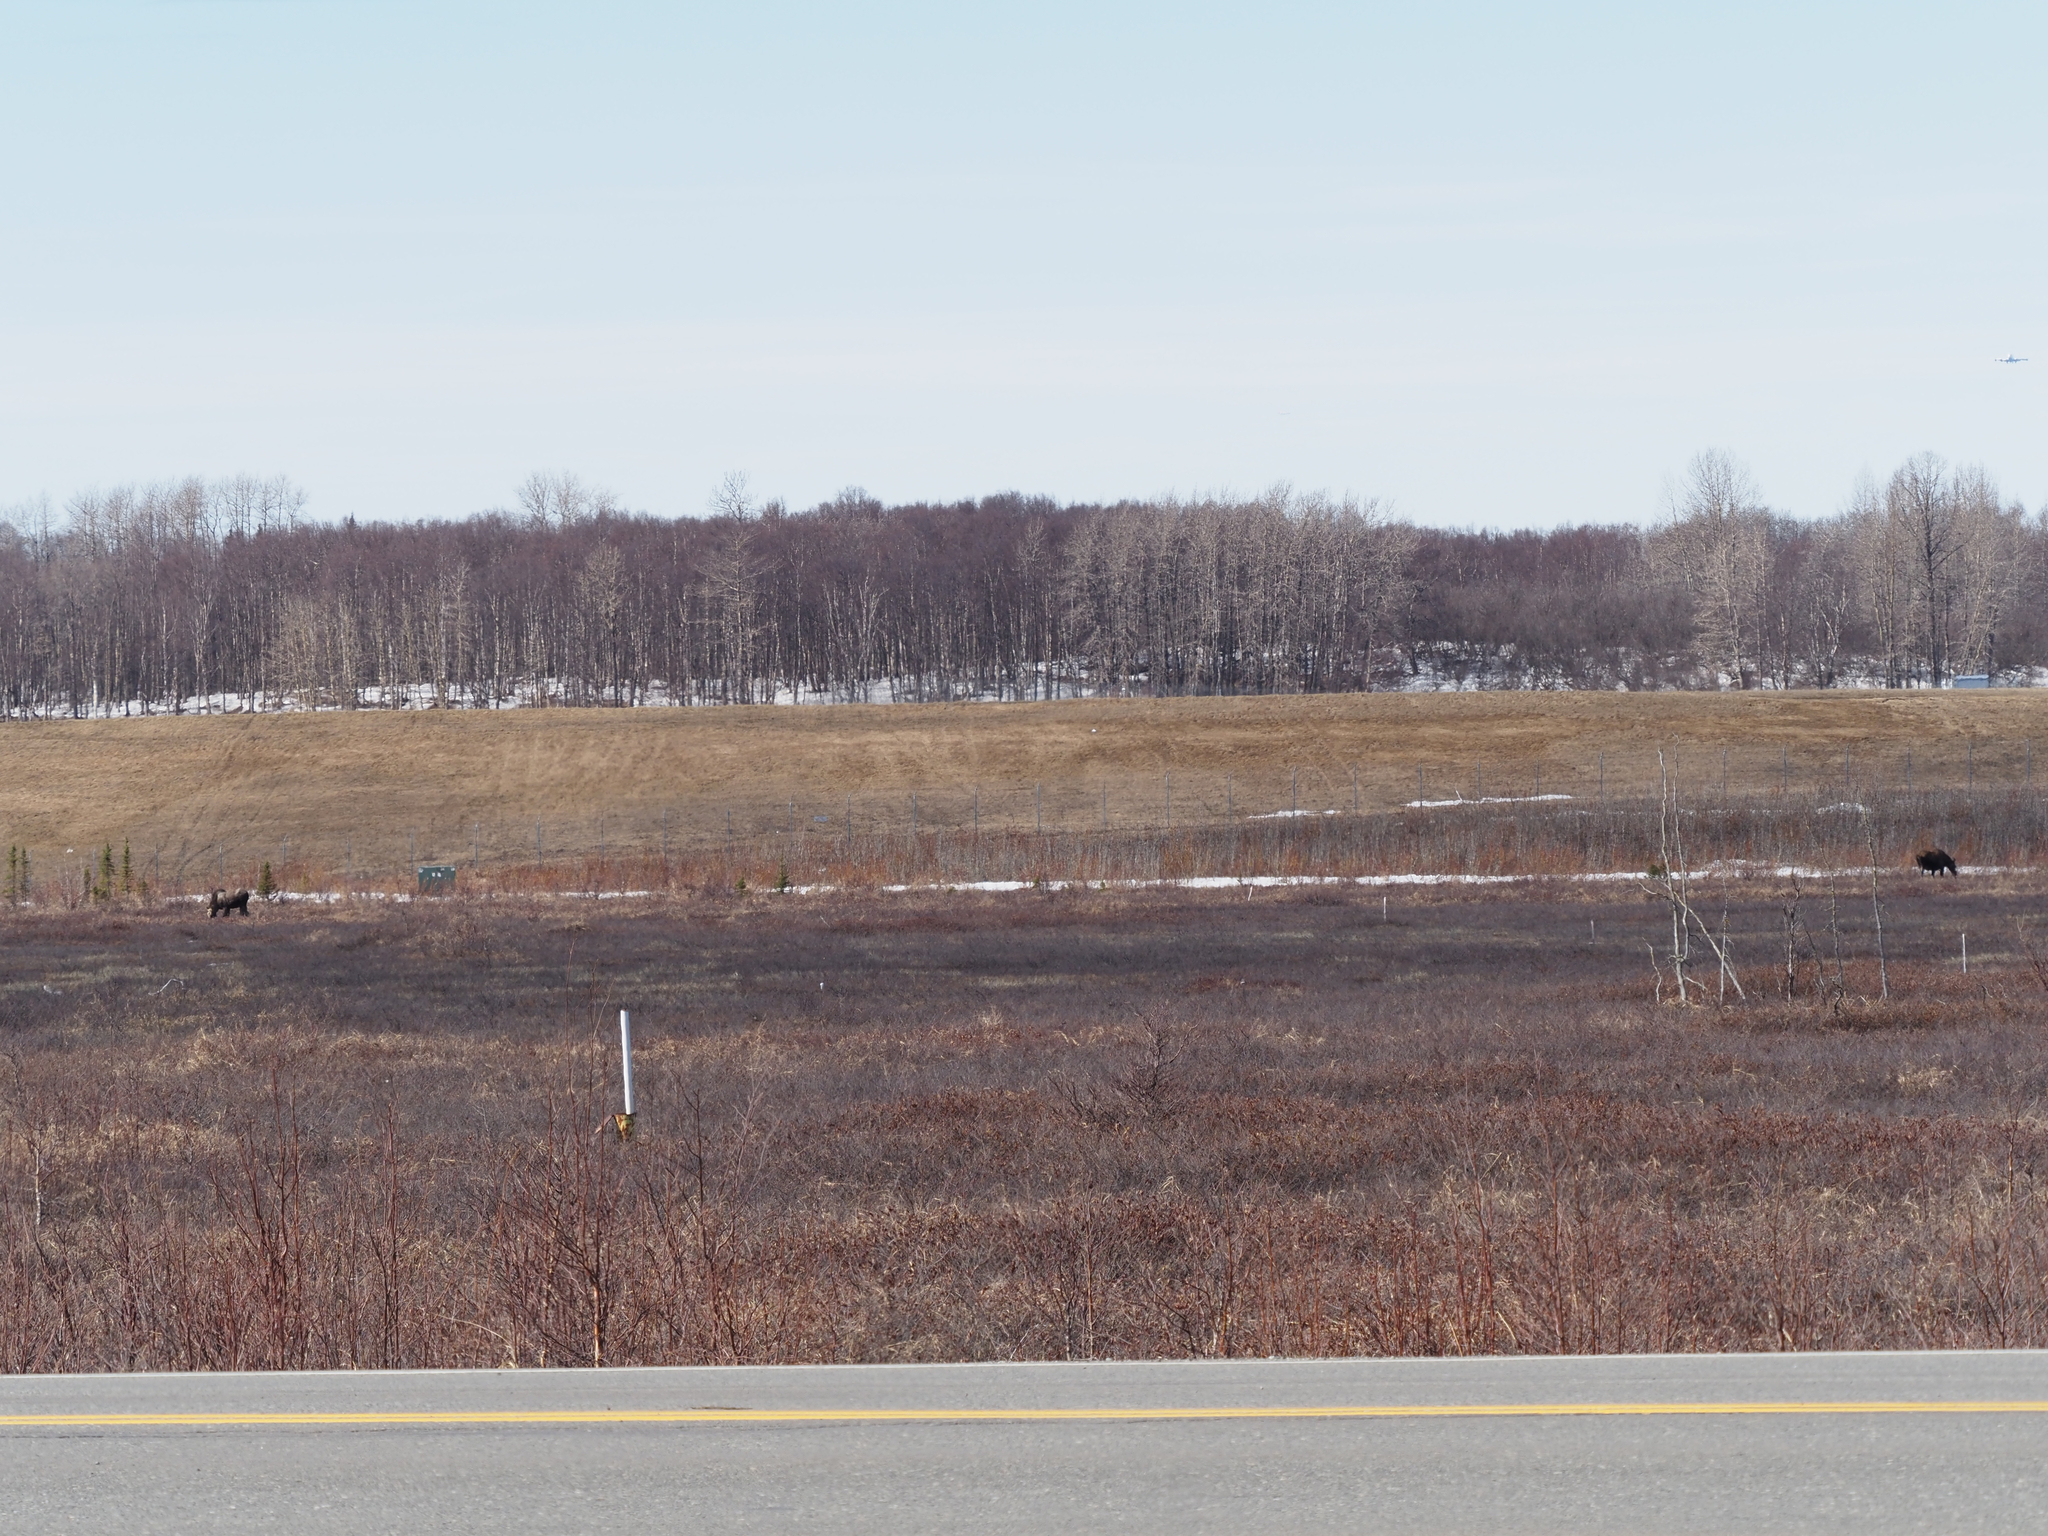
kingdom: Animalia
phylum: Chordata
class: Mammalia
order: Artiodactyla
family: Cervidae
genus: Alces
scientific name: Alces alces
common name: Moose
